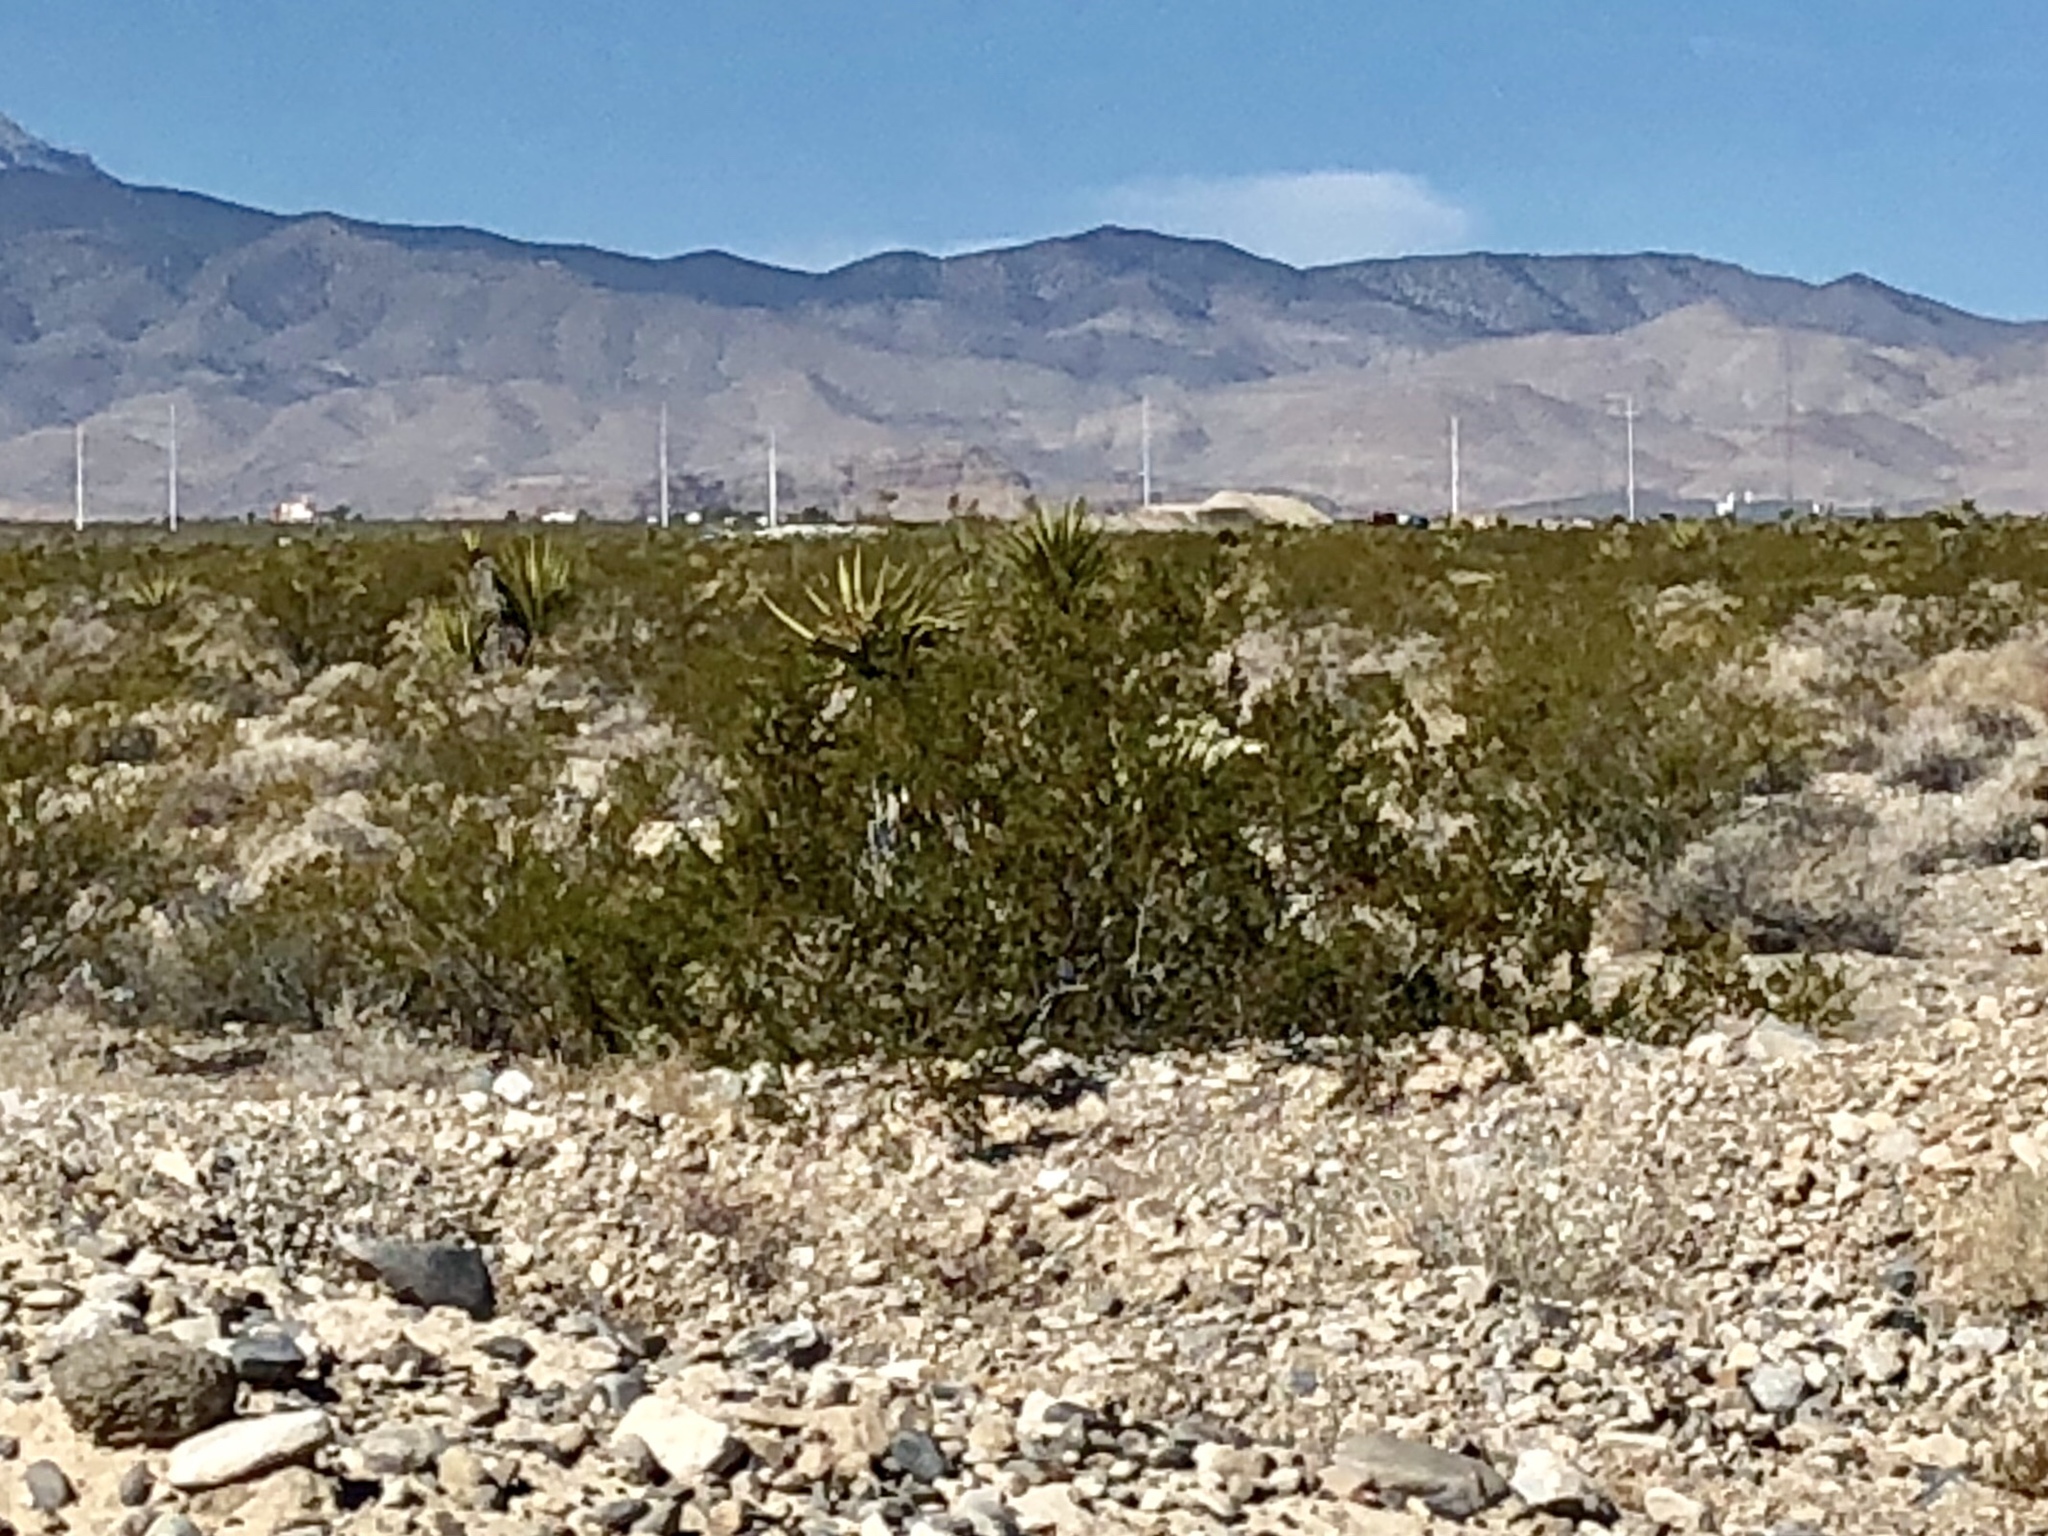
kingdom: Plantae
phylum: Tracheophyta
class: Magnoliopsida
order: Zygophyllales
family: Zygophyllaceae
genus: Larrea
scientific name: Larrea tridentata
